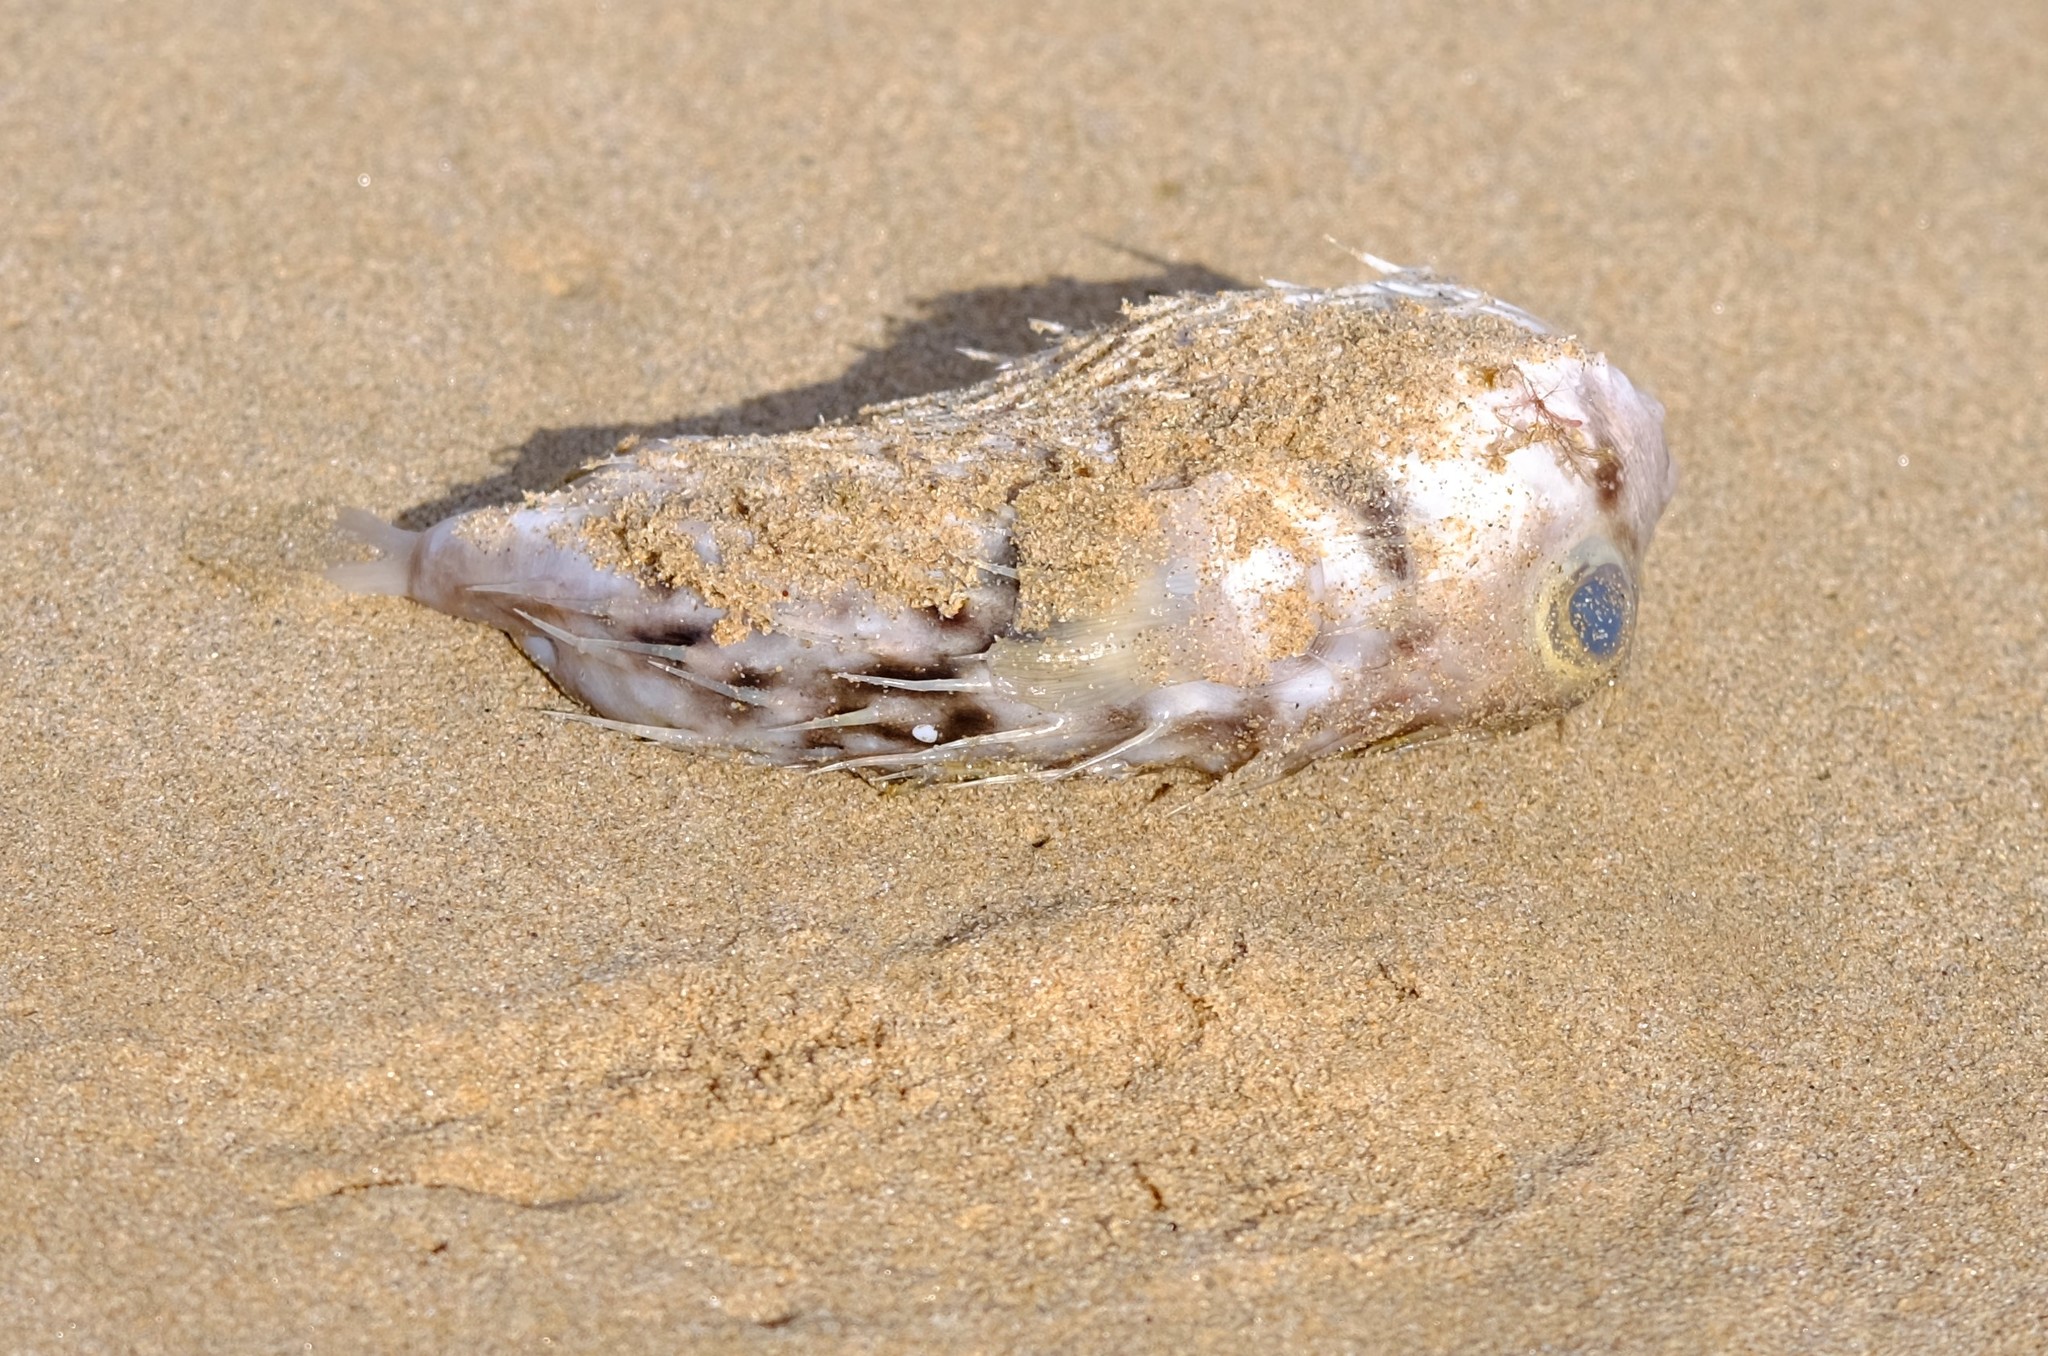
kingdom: Animalia
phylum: Chordata
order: Tetraodontiformes
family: Diodontidae
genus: Diodon
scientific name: Diodon nicthemerus
